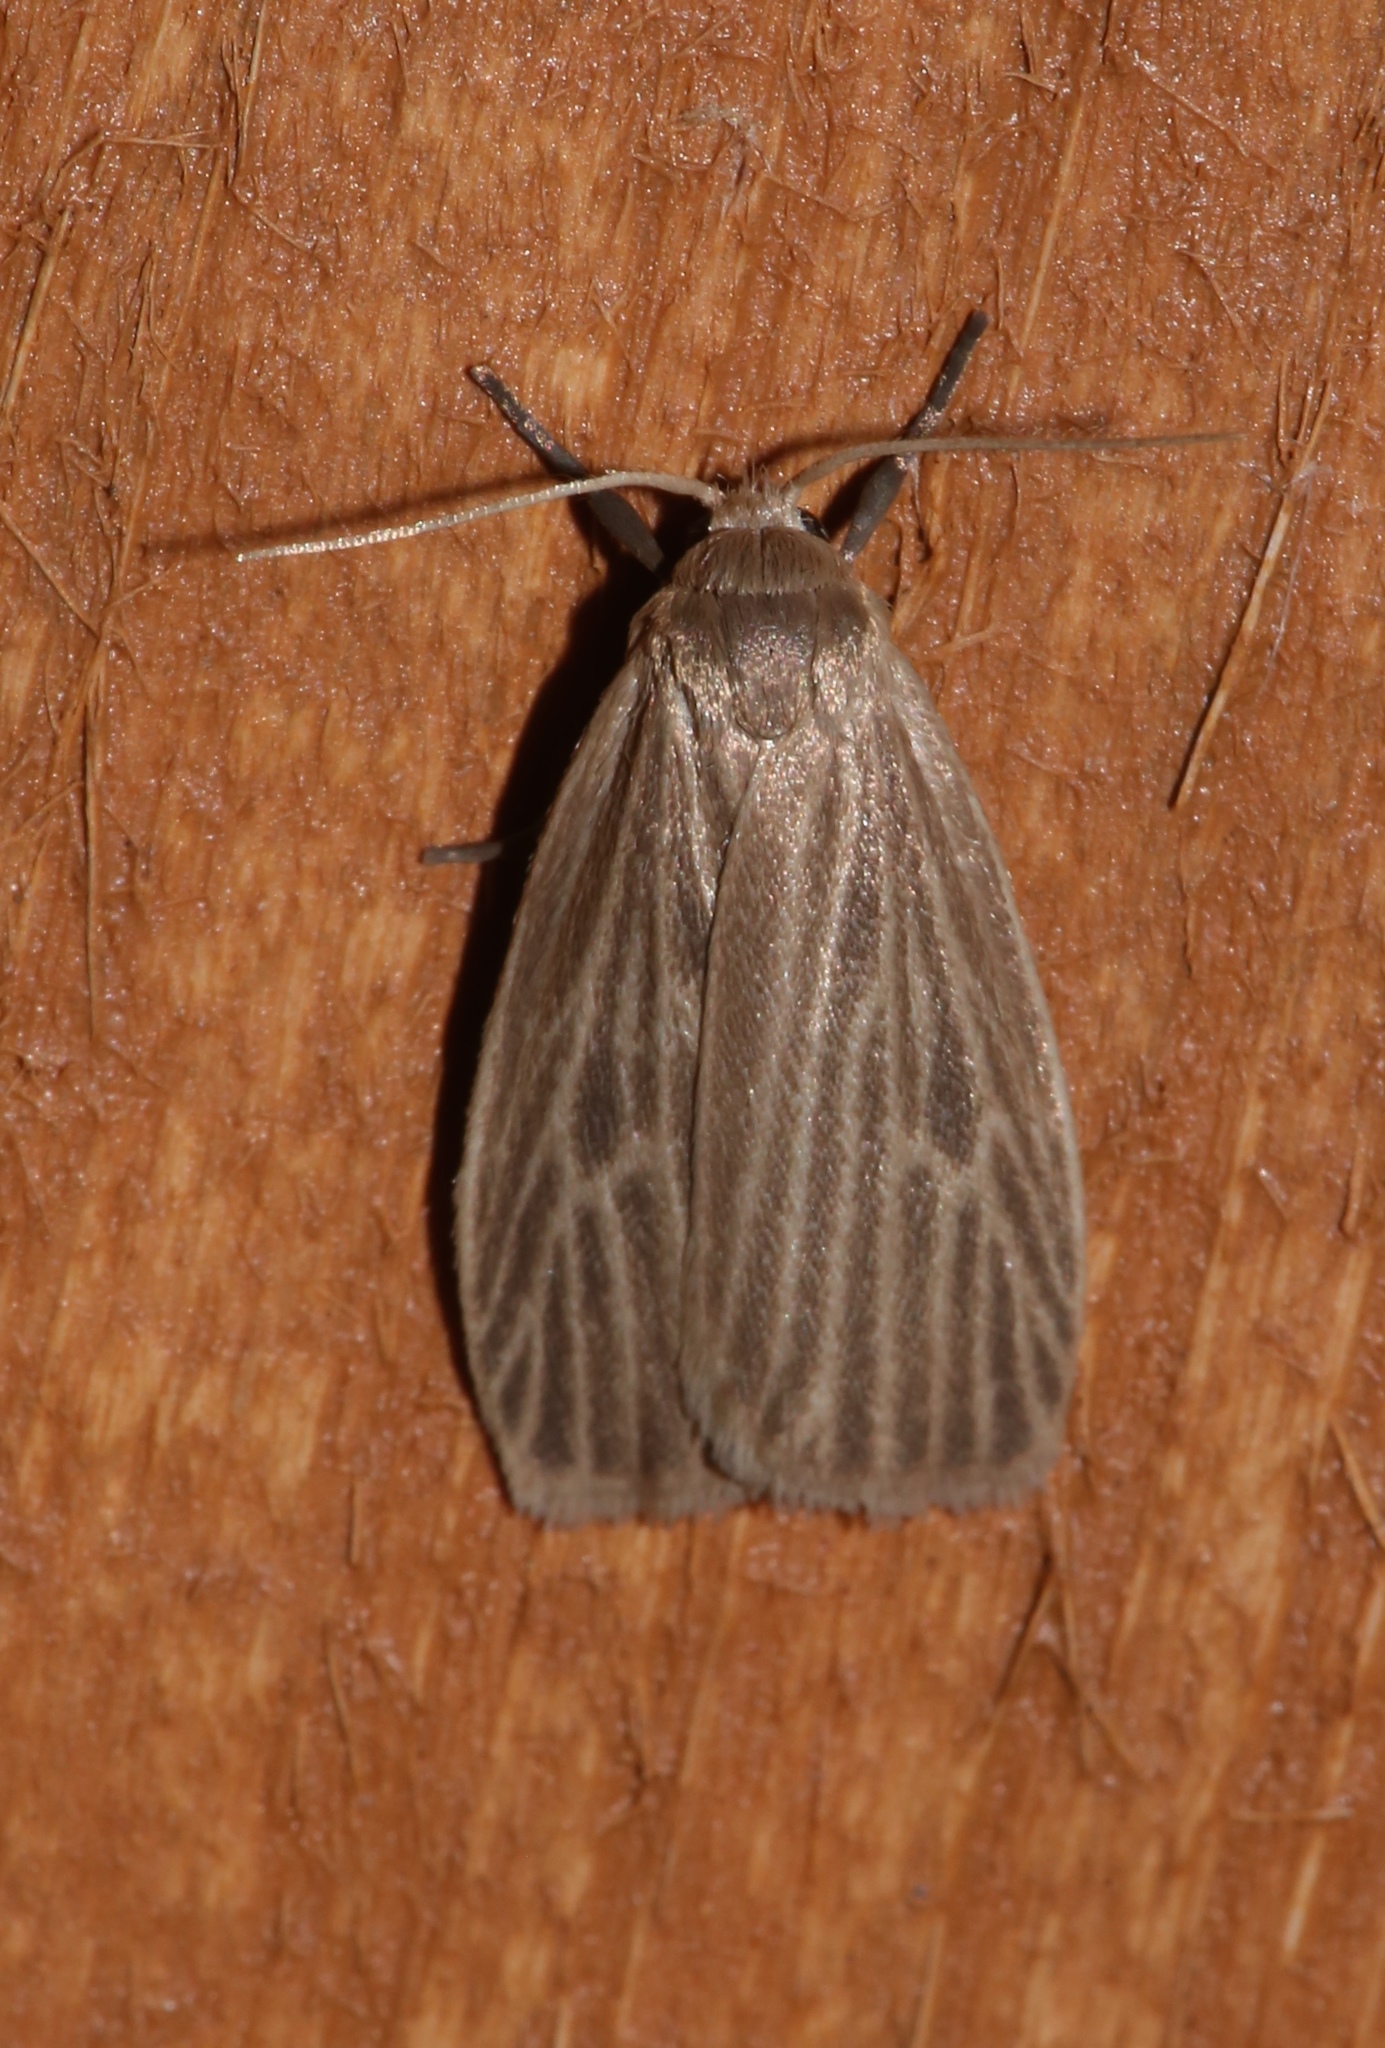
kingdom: Animalia
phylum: Arthropoda
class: Insecta
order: Lepidoptera
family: Erebidae
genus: Crambidia
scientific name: Crambidia pallida
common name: Pale lichen moth
